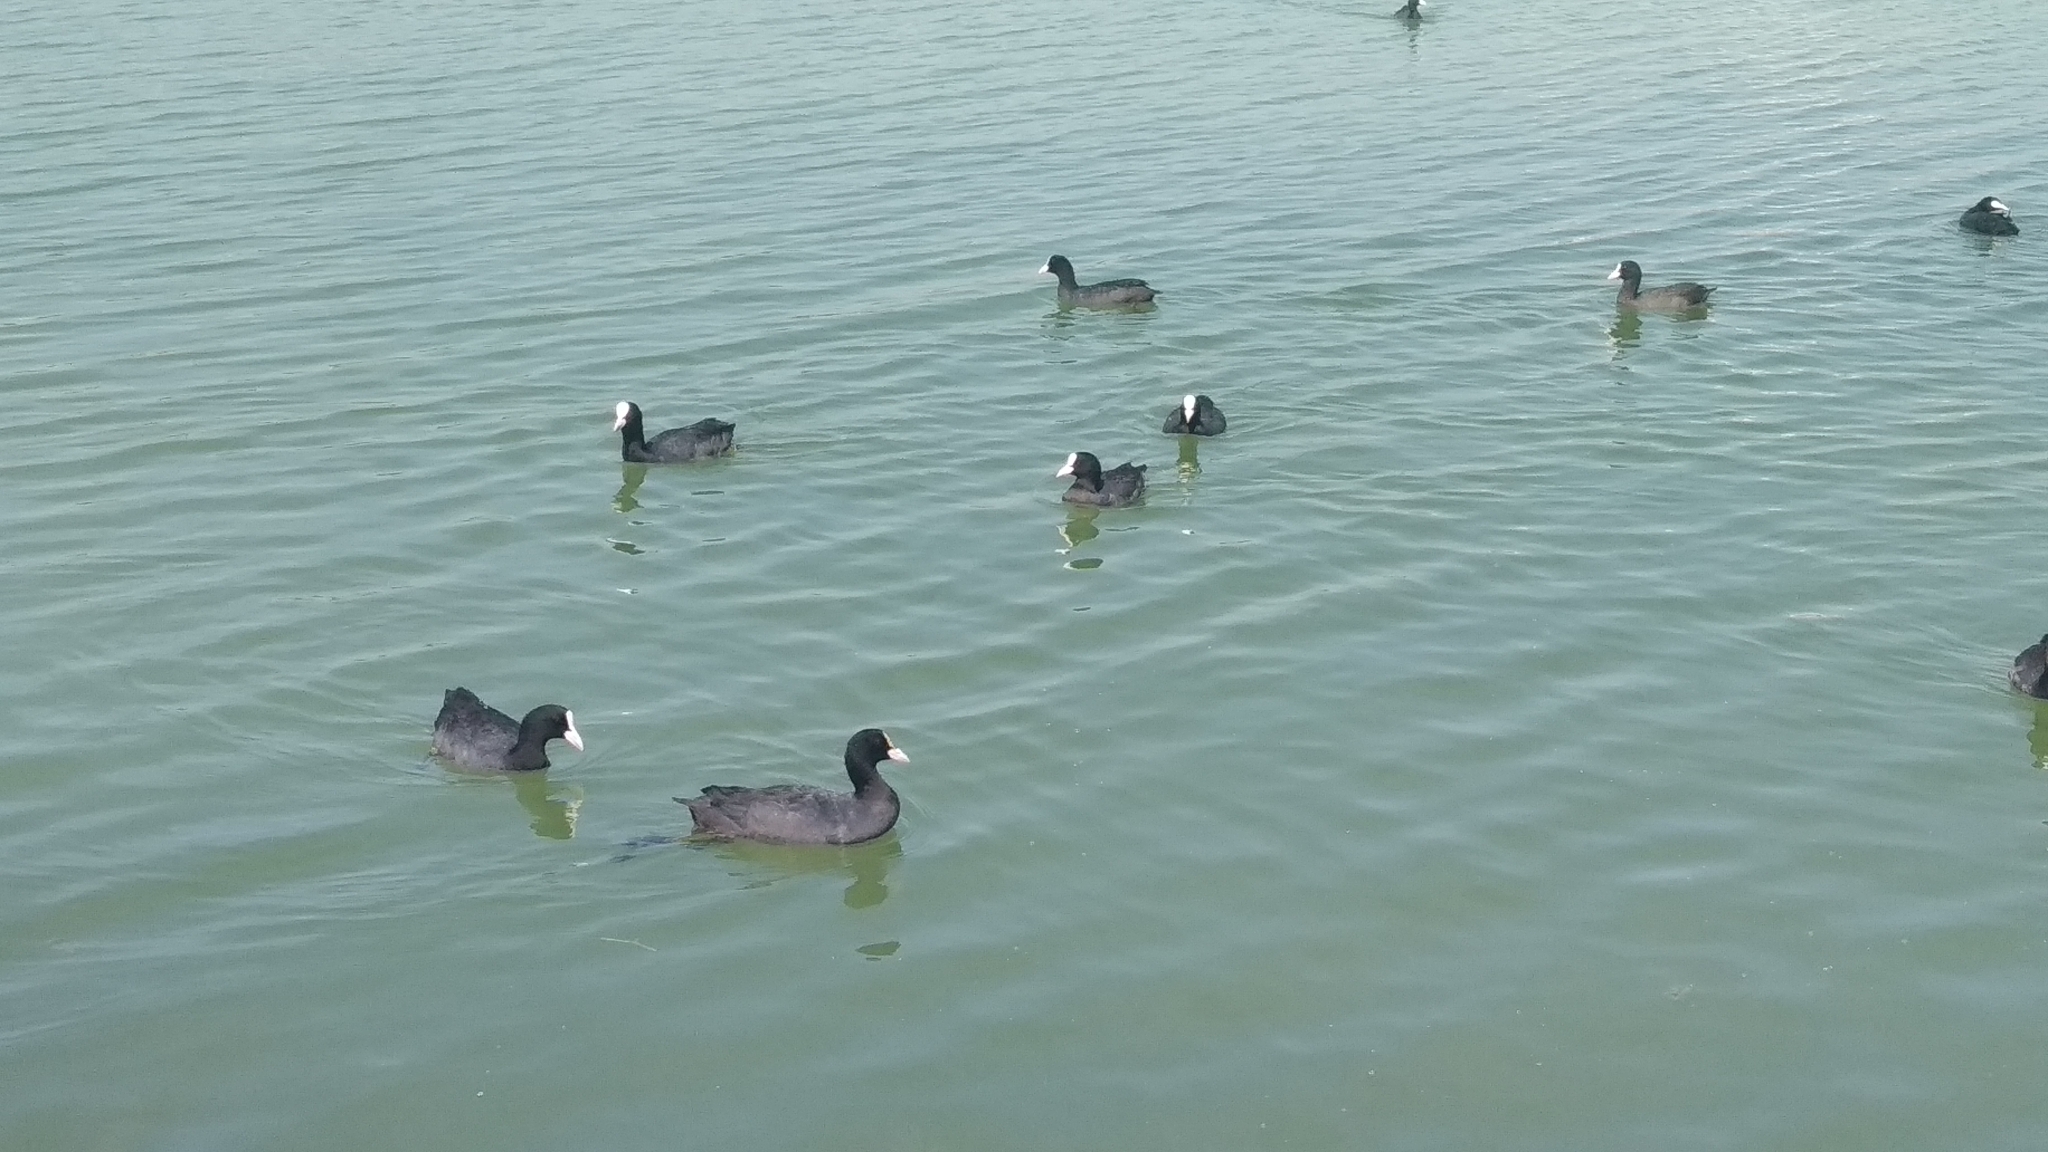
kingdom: Animalia
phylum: Chordata
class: Aves
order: Gruiformes
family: Rallidae
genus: Fulica
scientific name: Fulica atra
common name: Eurasian coot
